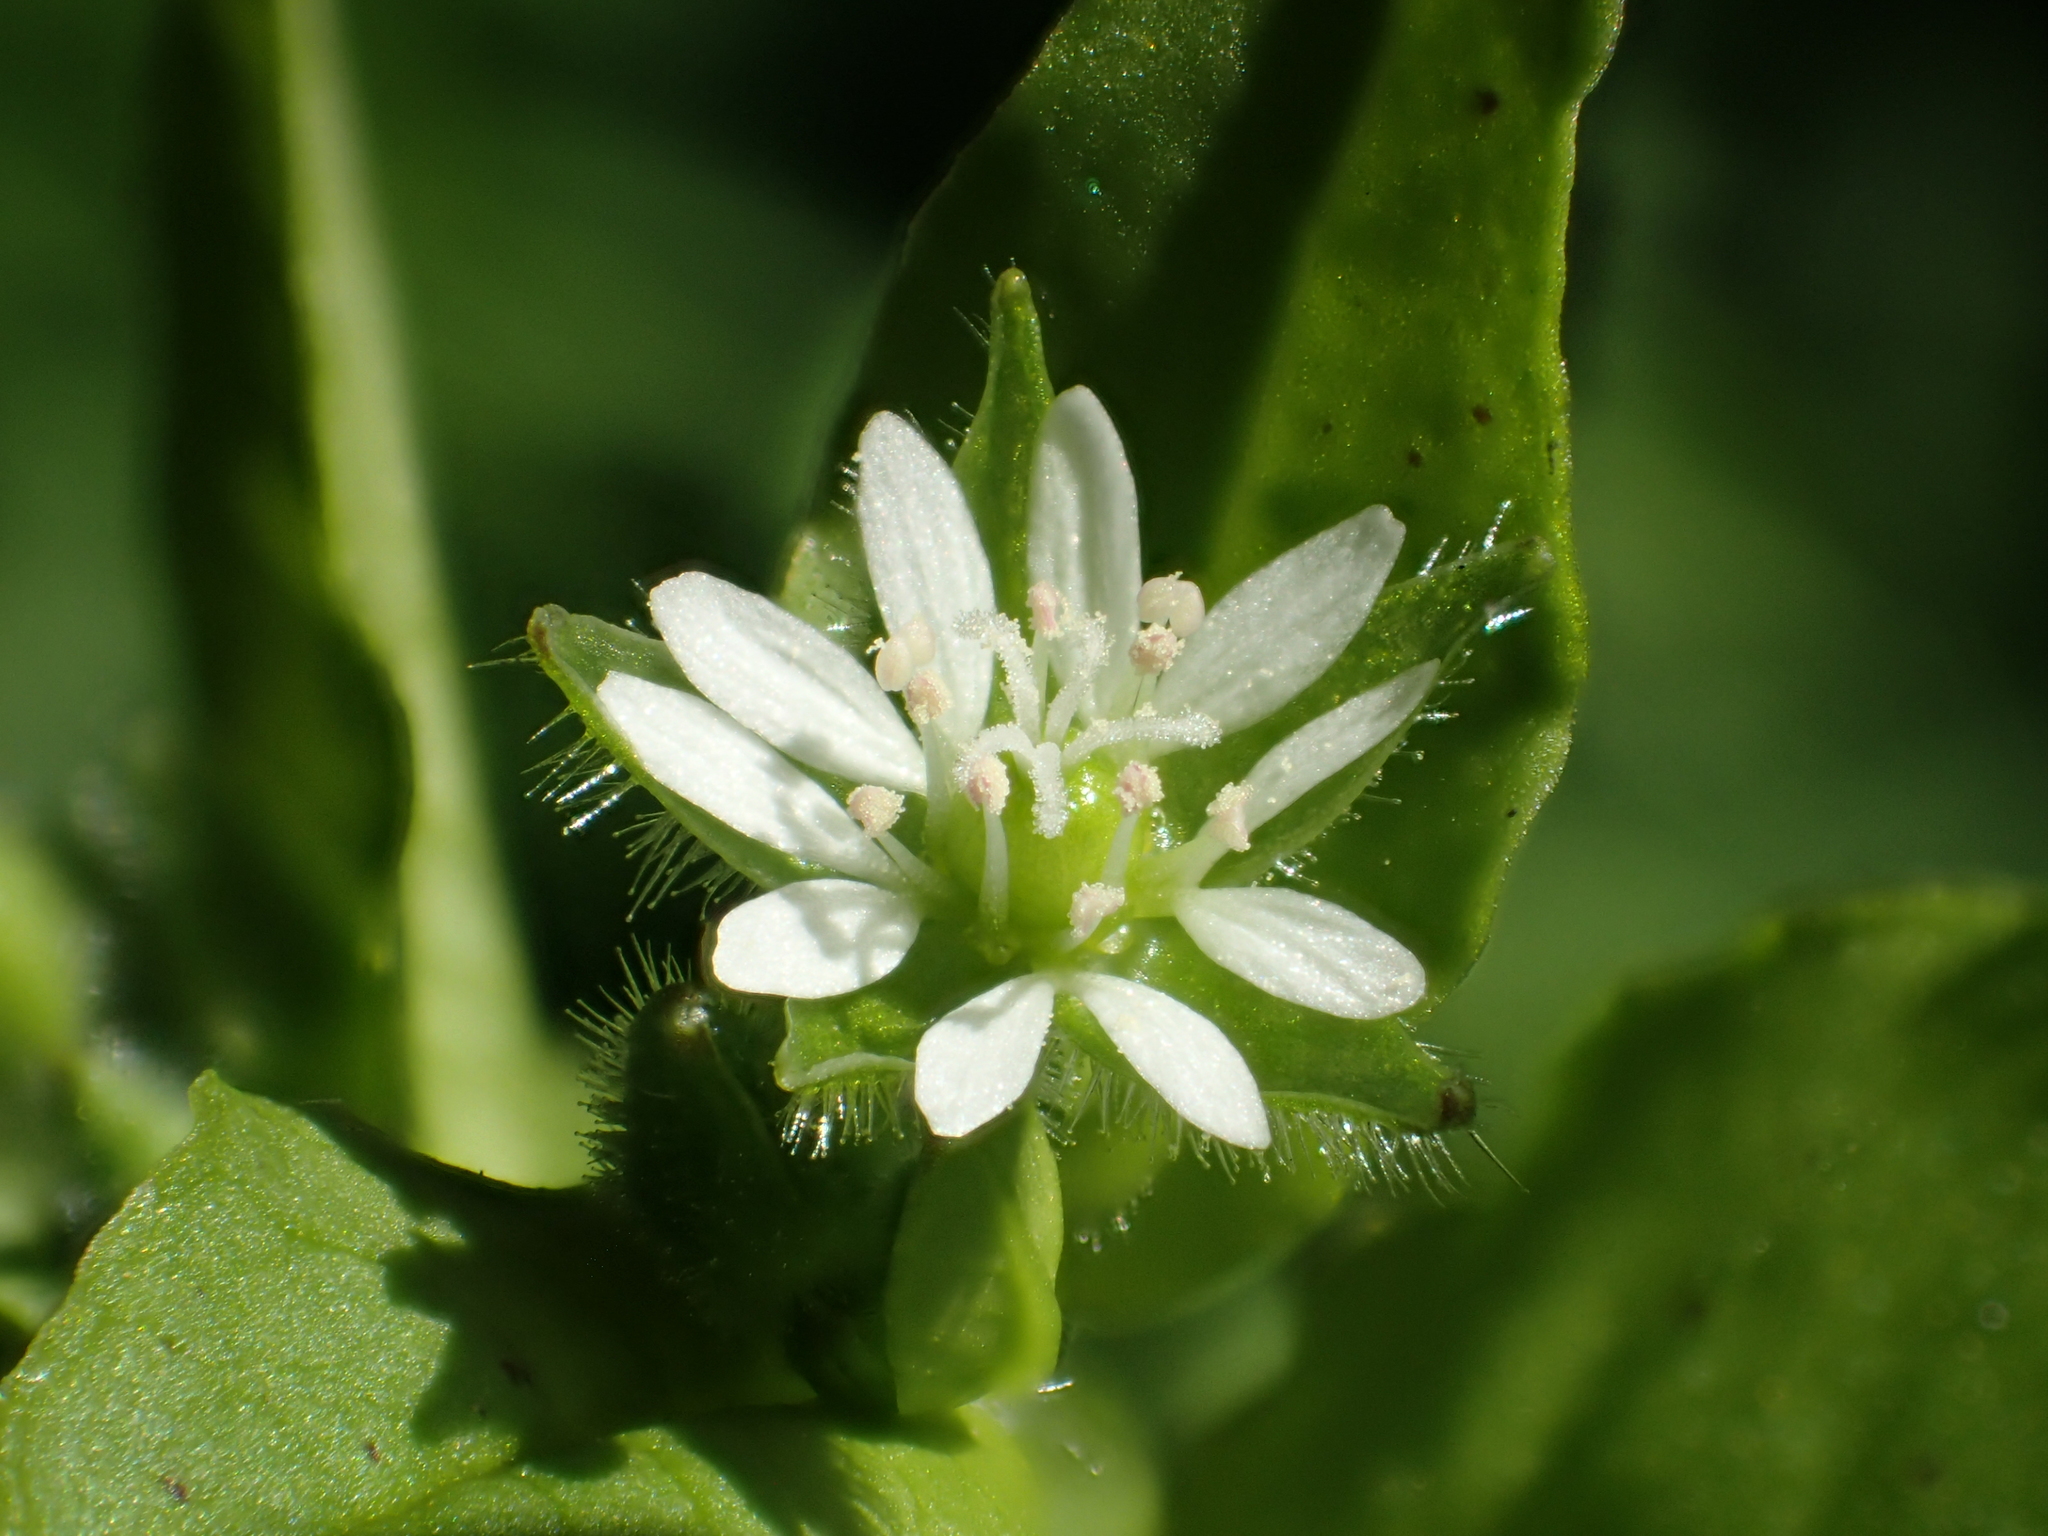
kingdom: Plantae
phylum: Tracheophyta
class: Magnoliopsida
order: Caryophyllales
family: Caryophyllaceae
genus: Stellaria
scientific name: Stellaria aquatica
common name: Water chickweed
